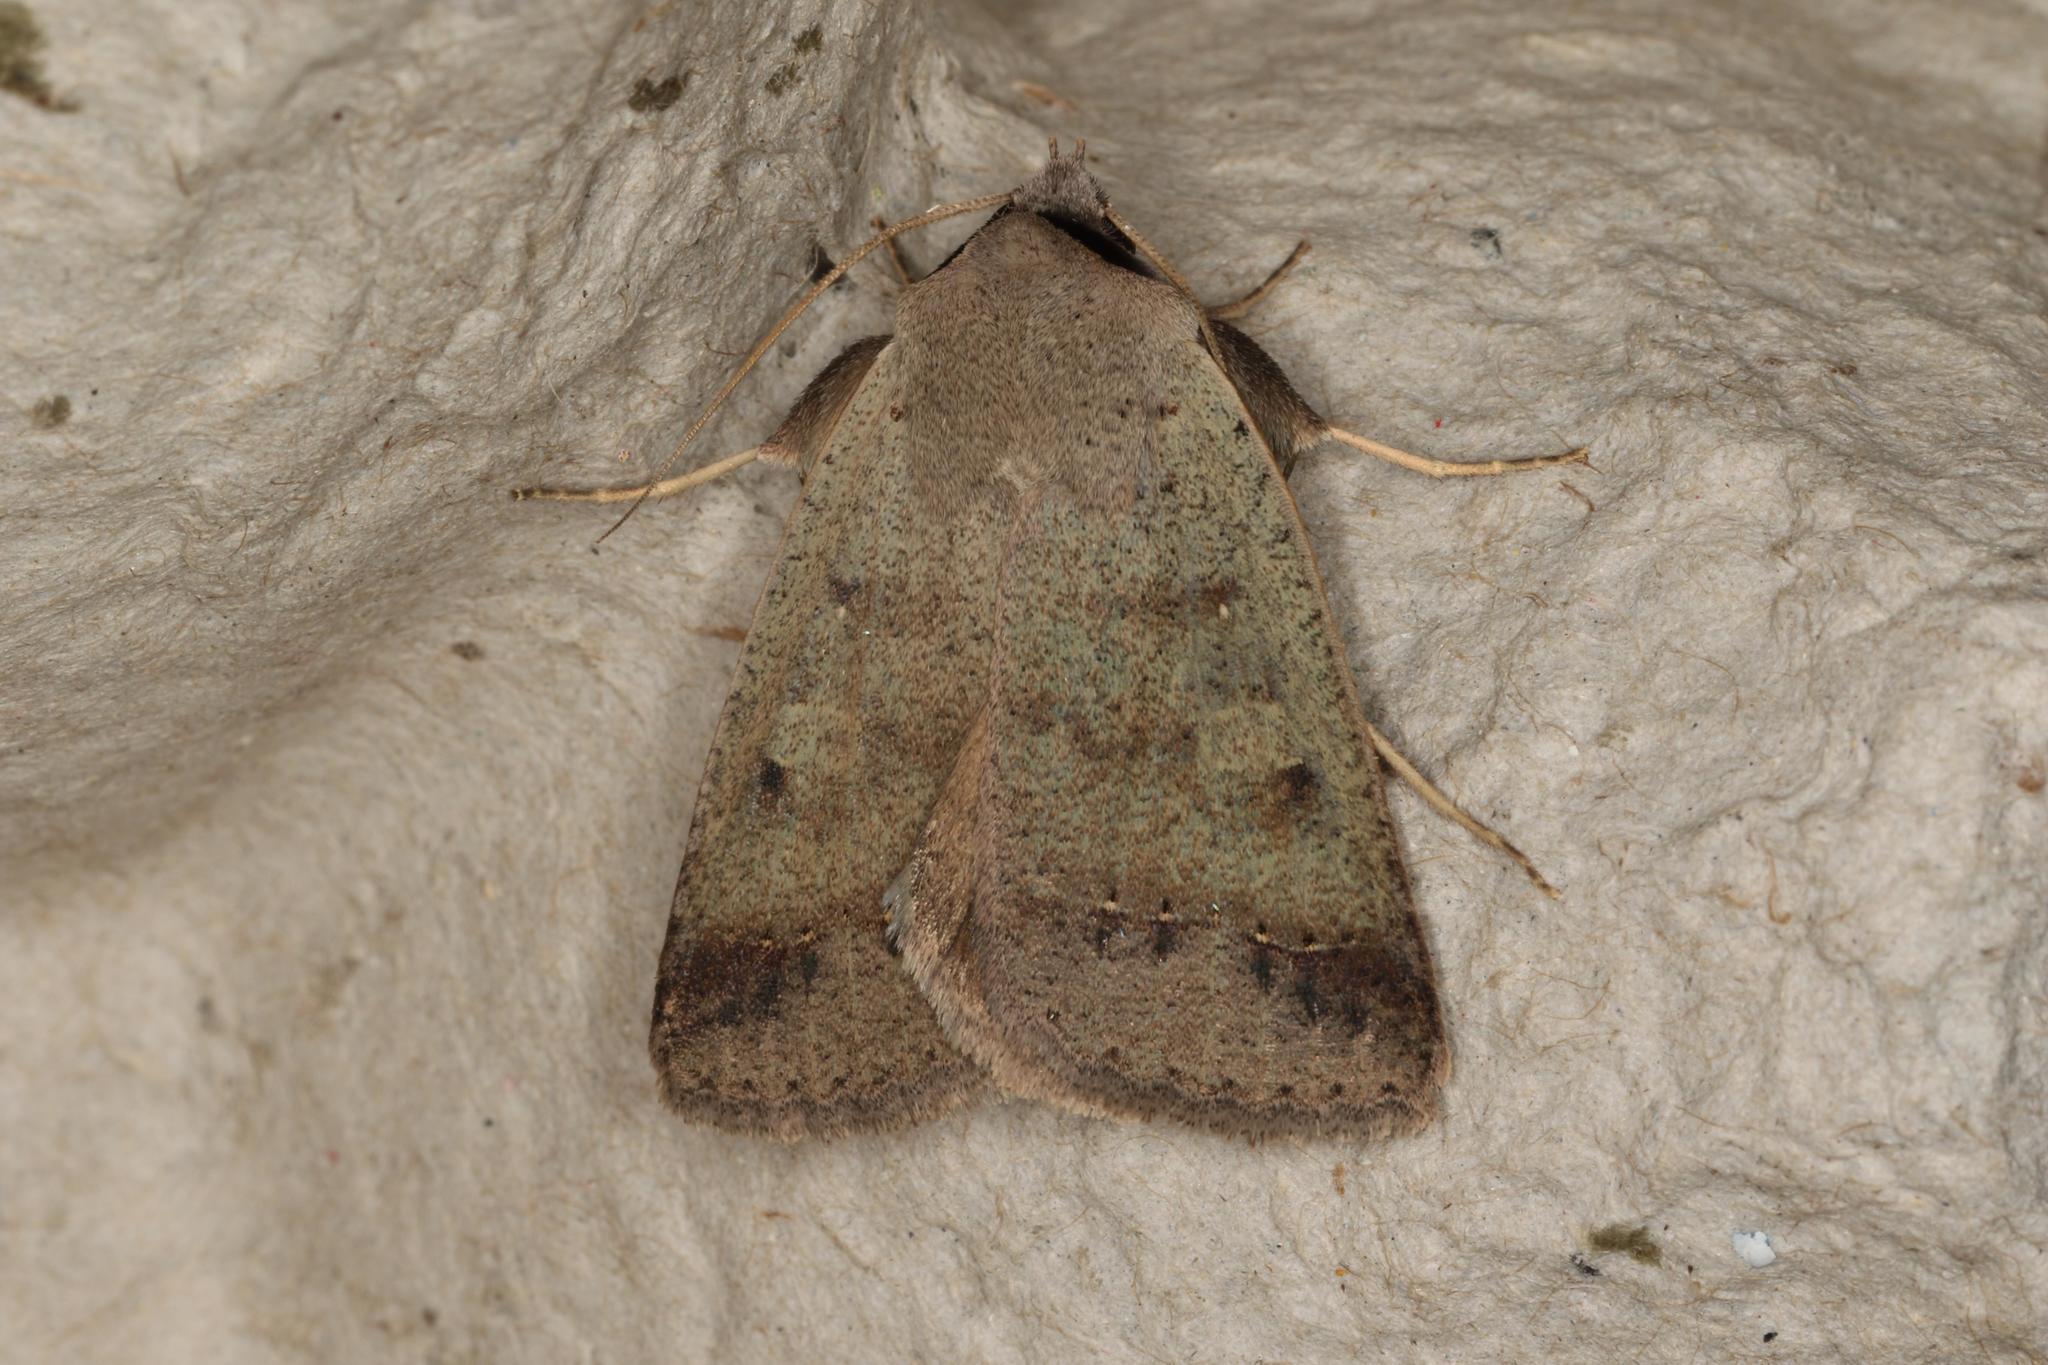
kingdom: Animalia
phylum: Arthropoda
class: Insecta
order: Lepidoptera
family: Erebidae
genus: Pantydia
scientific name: Pantydia sparsa
